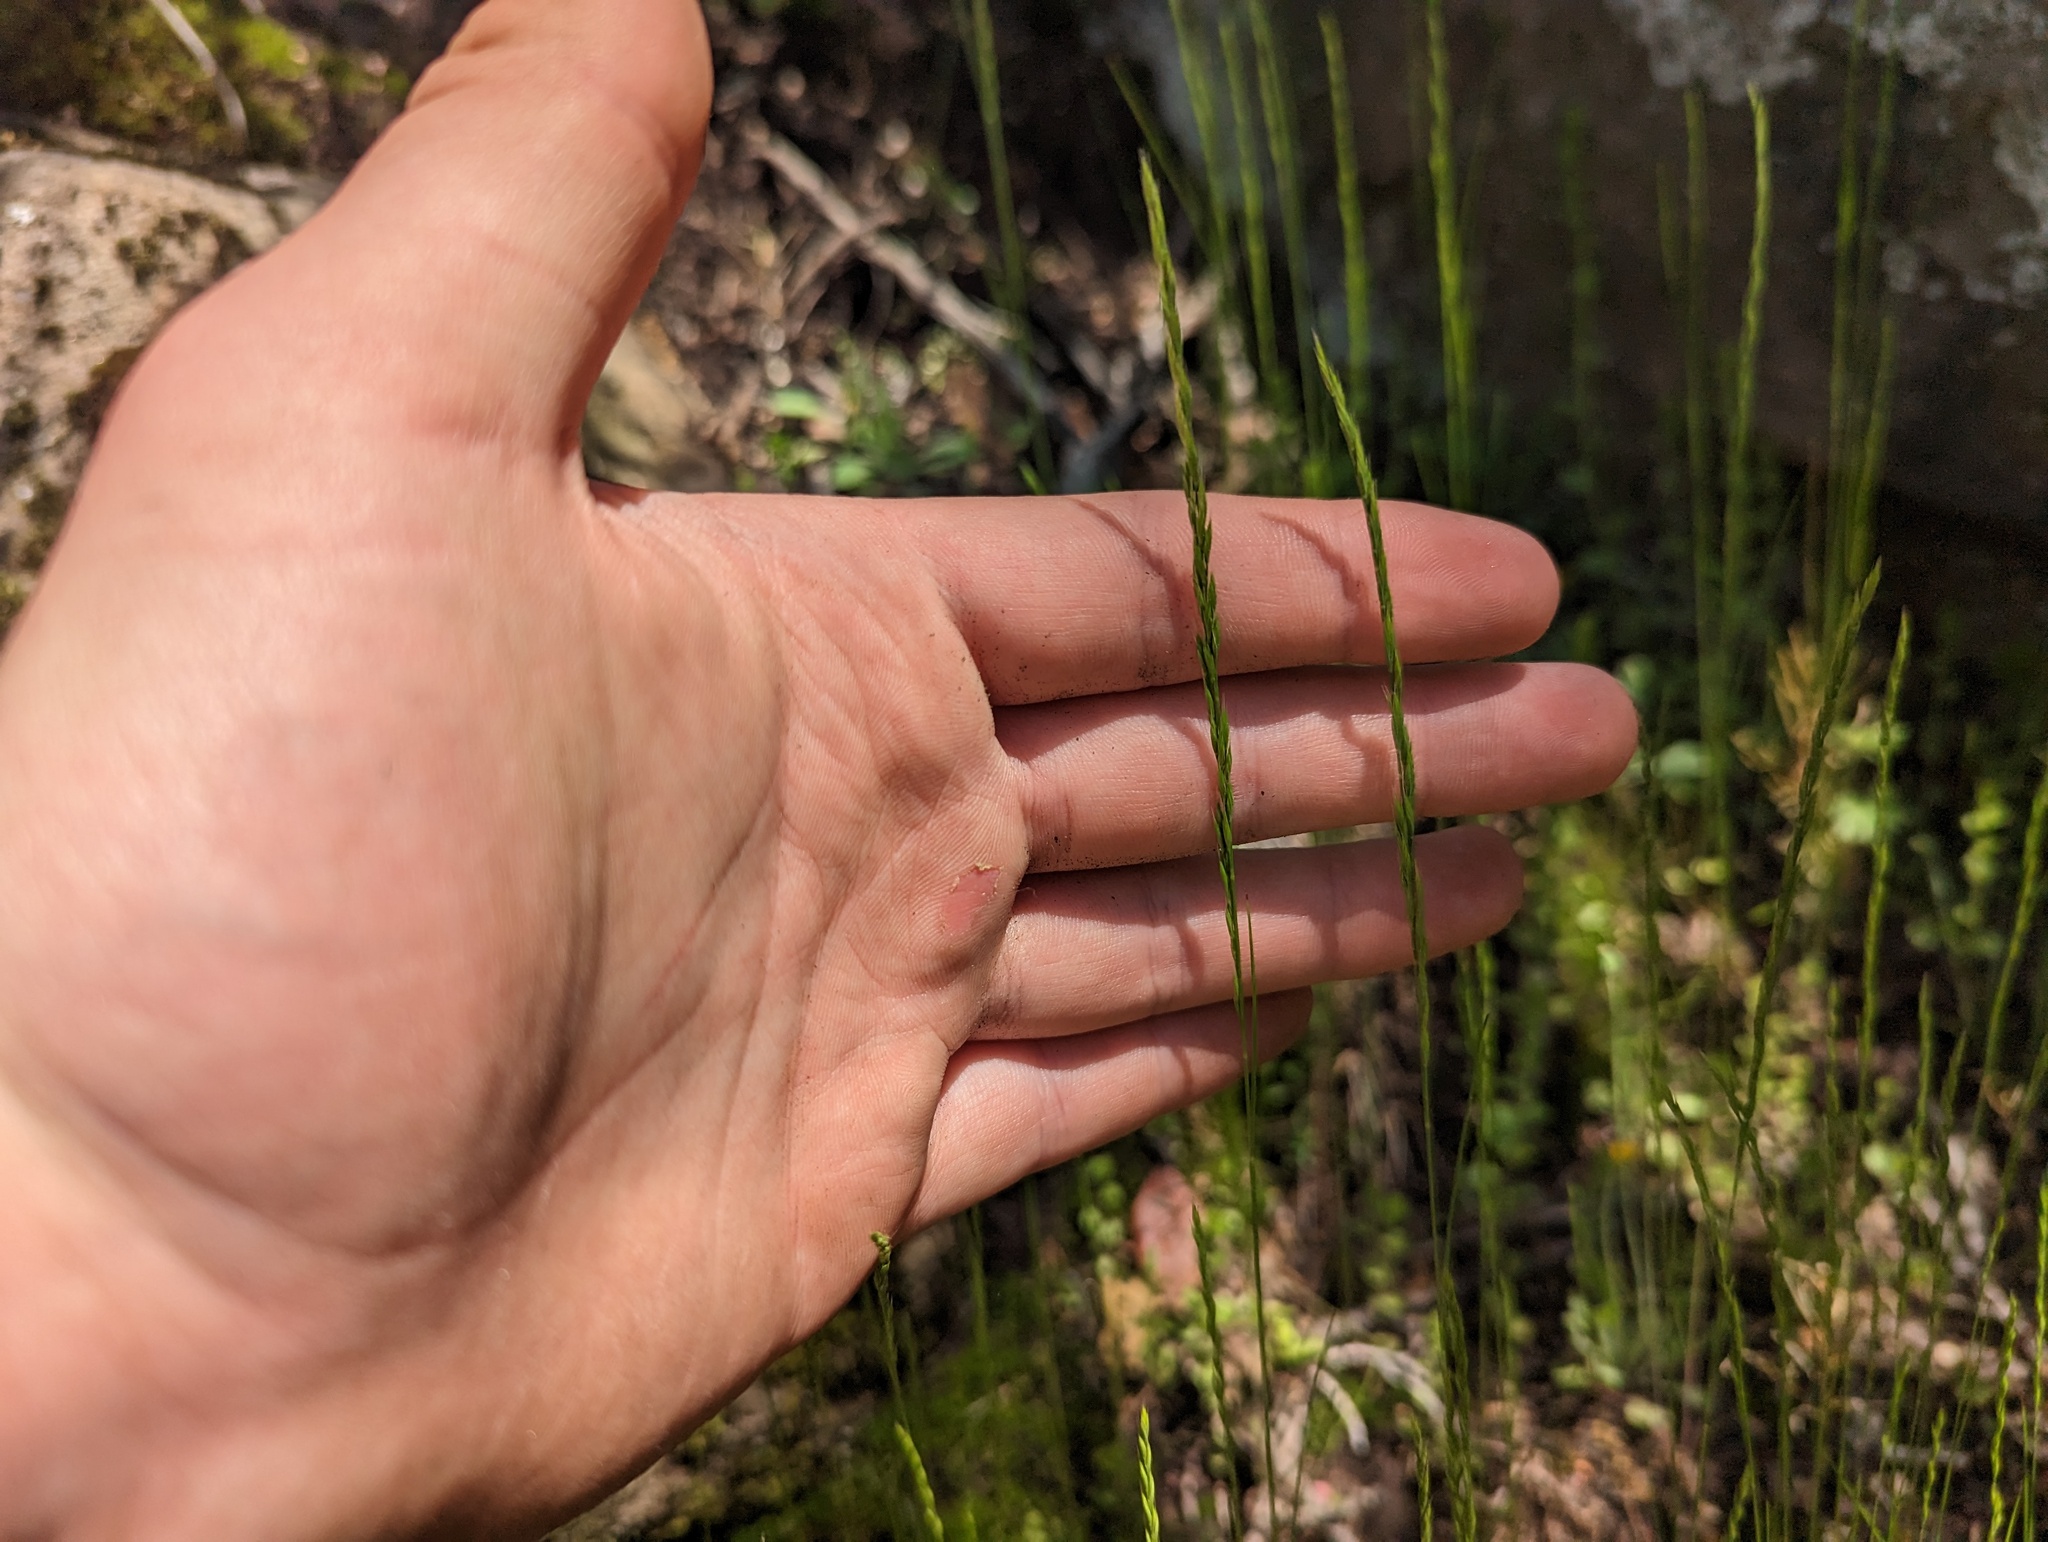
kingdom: Plantae
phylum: Tracheophyta
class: Liliopsida
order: Poales
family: Poaceae
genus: Festuca
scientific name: Festuca octoflora
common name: Sixweeks grass
